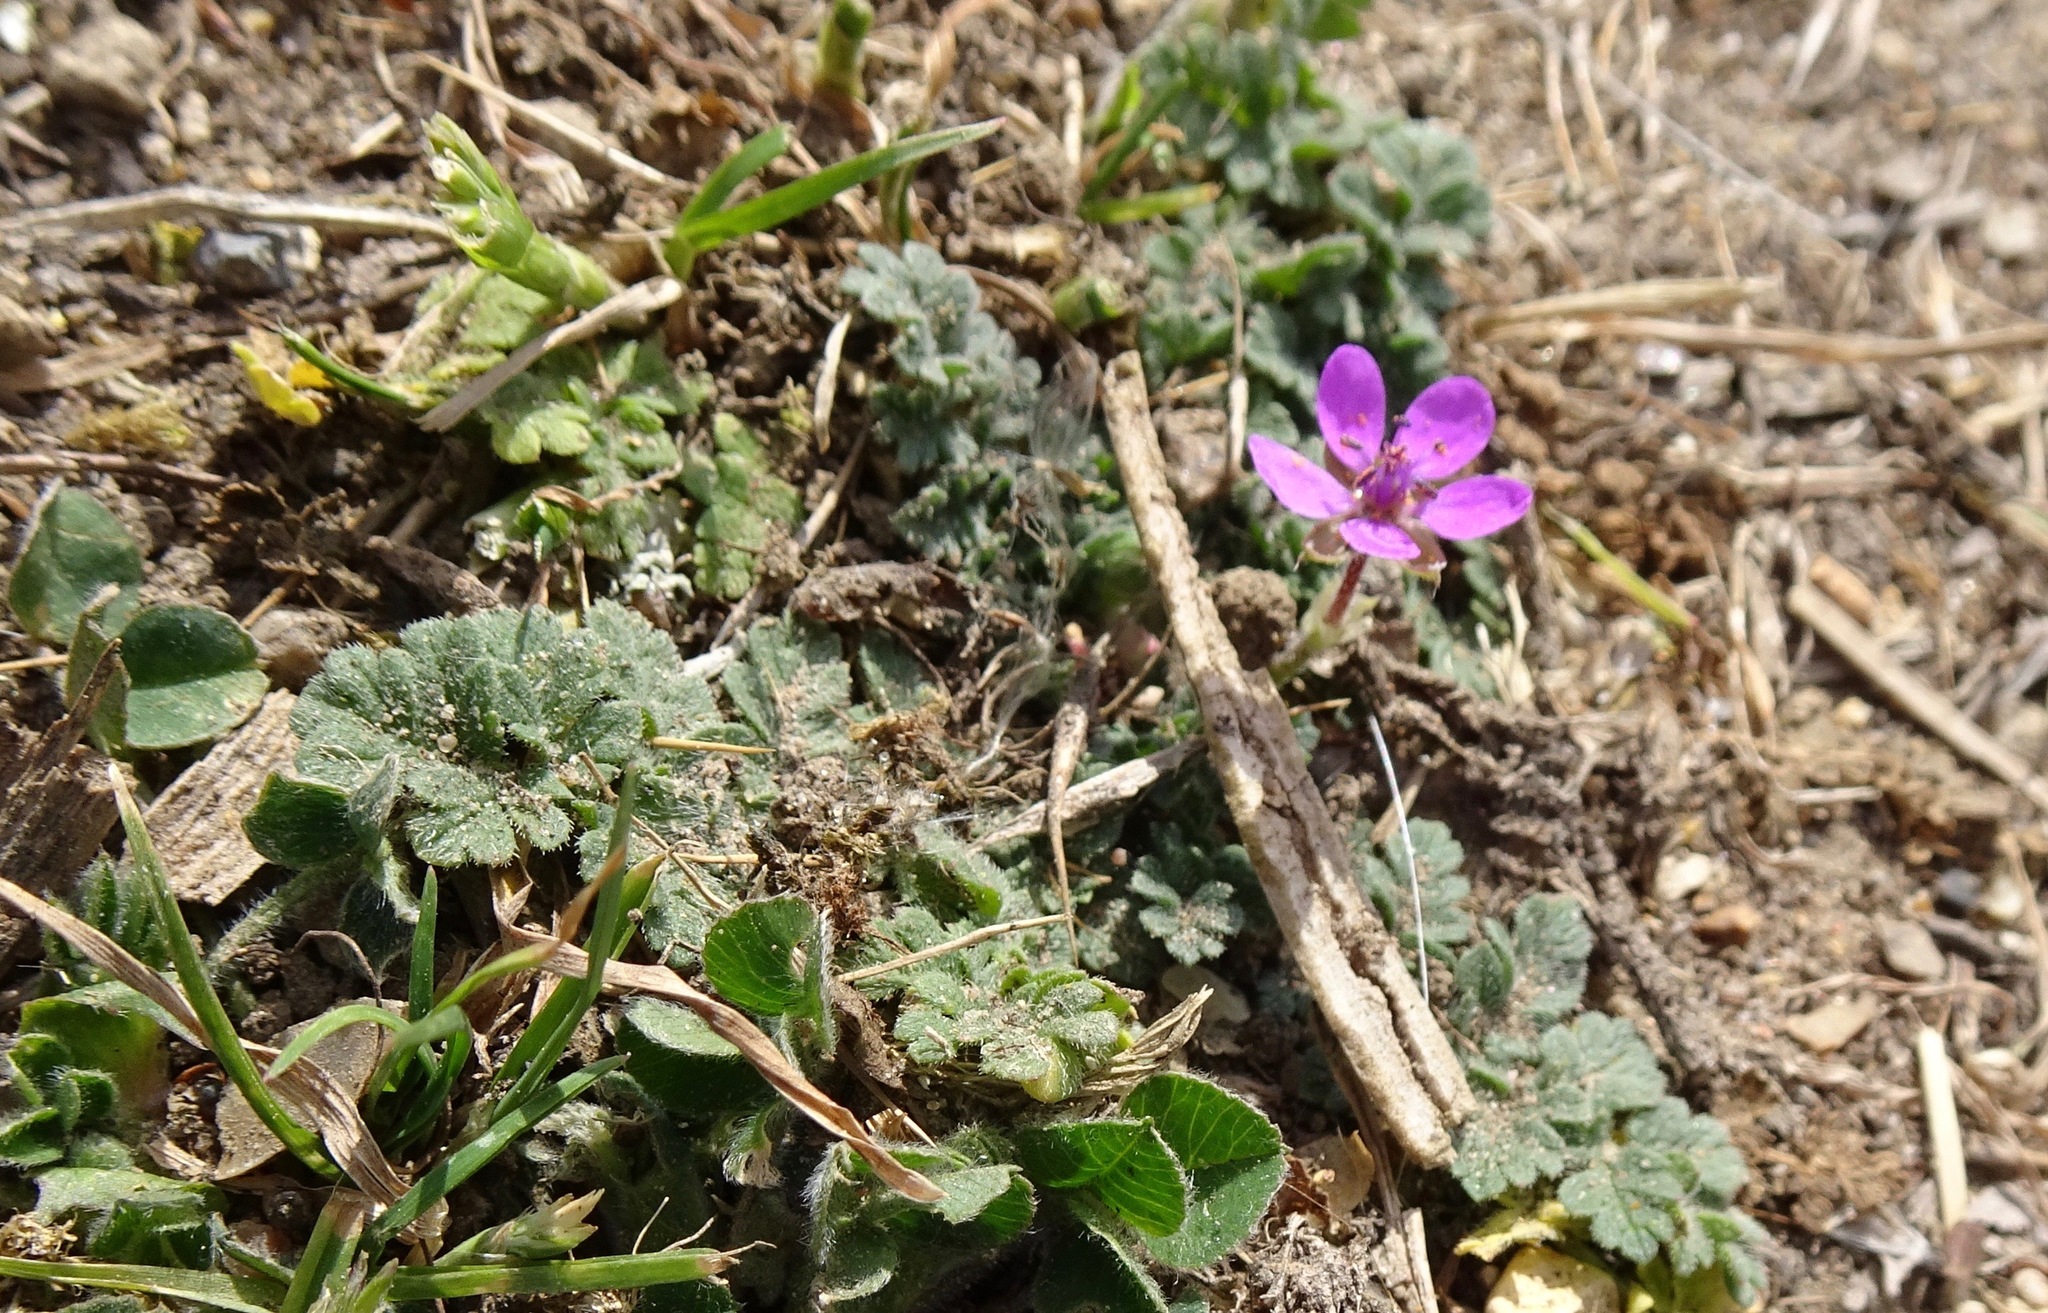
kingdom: Plantae
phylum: Tracheophyta
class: Magnoliopsida
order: Geraniales
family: Geraniaceae
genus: Erodium
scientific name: Erodium cicutarium
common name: Common stork's-bill
